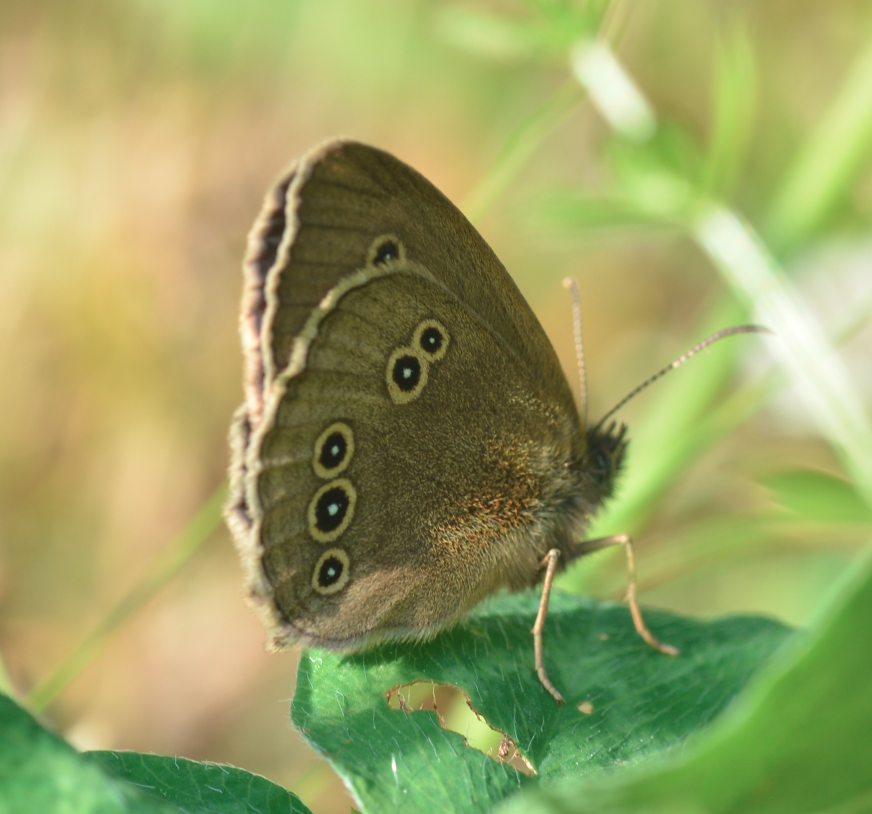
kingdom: Animalia
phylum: Arthropoda
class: Insecta
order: Lepidoptera
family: Nymphalidae
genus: Aphantopus
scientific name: Aphantopus hyperantus
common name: Ringlet
